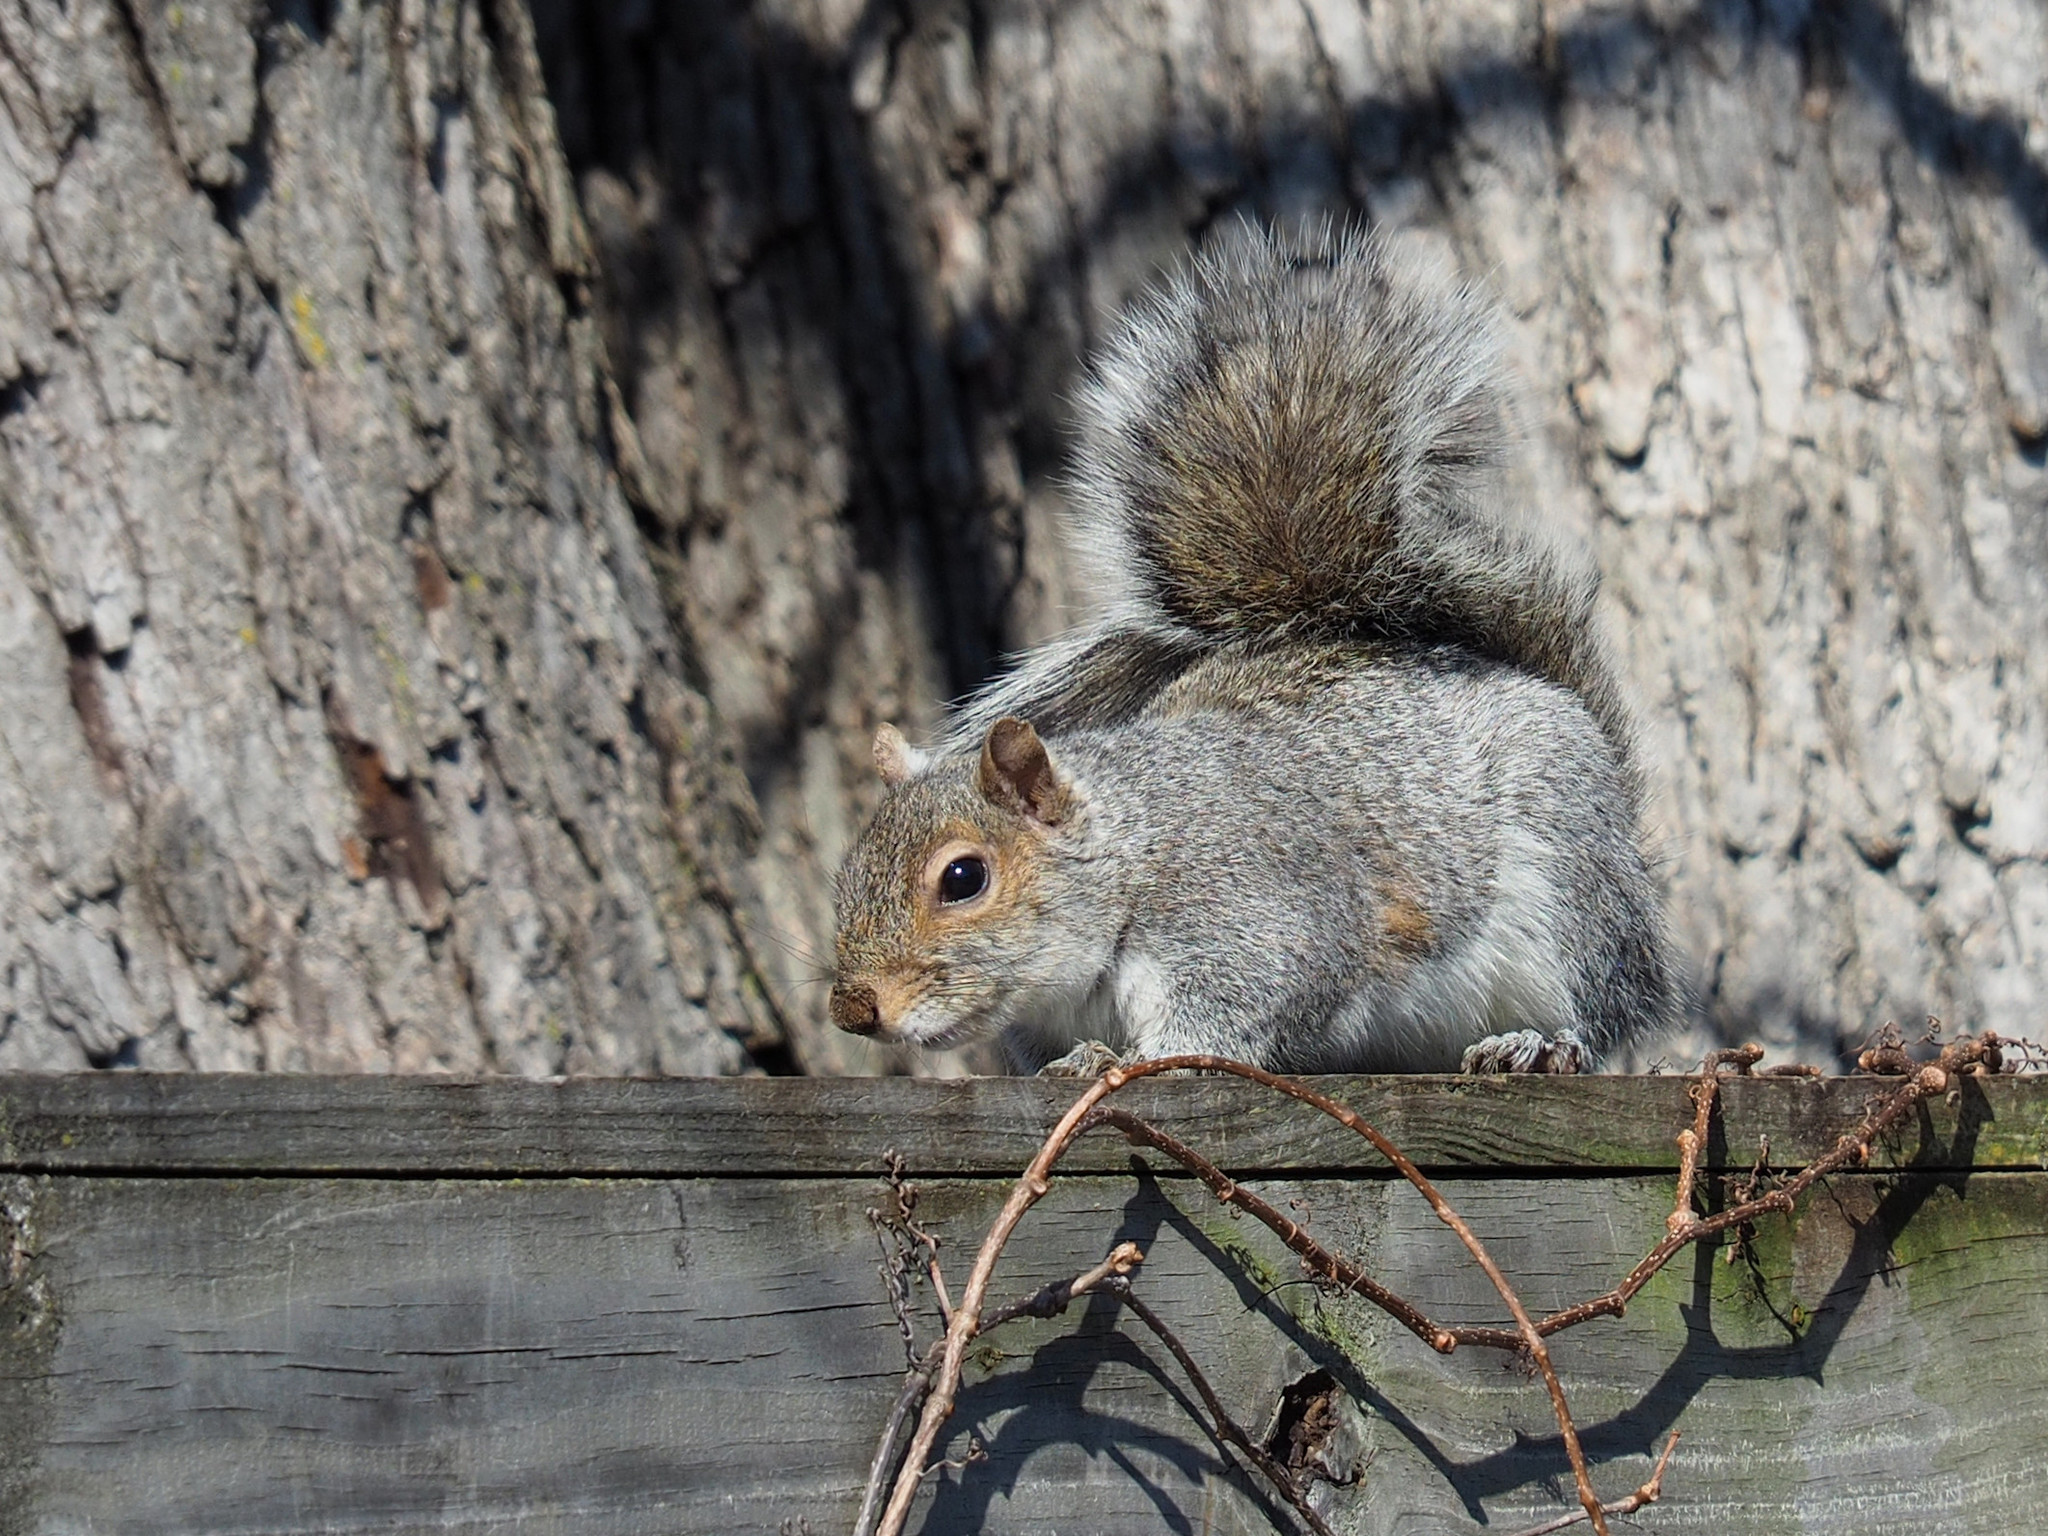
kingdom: Animalia
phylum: Chordata
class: Mammalia
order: Rodentia
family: Sciuridae
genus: Sciurus
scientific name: Sciurus carolinensis
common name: Eastern gray squirrel
